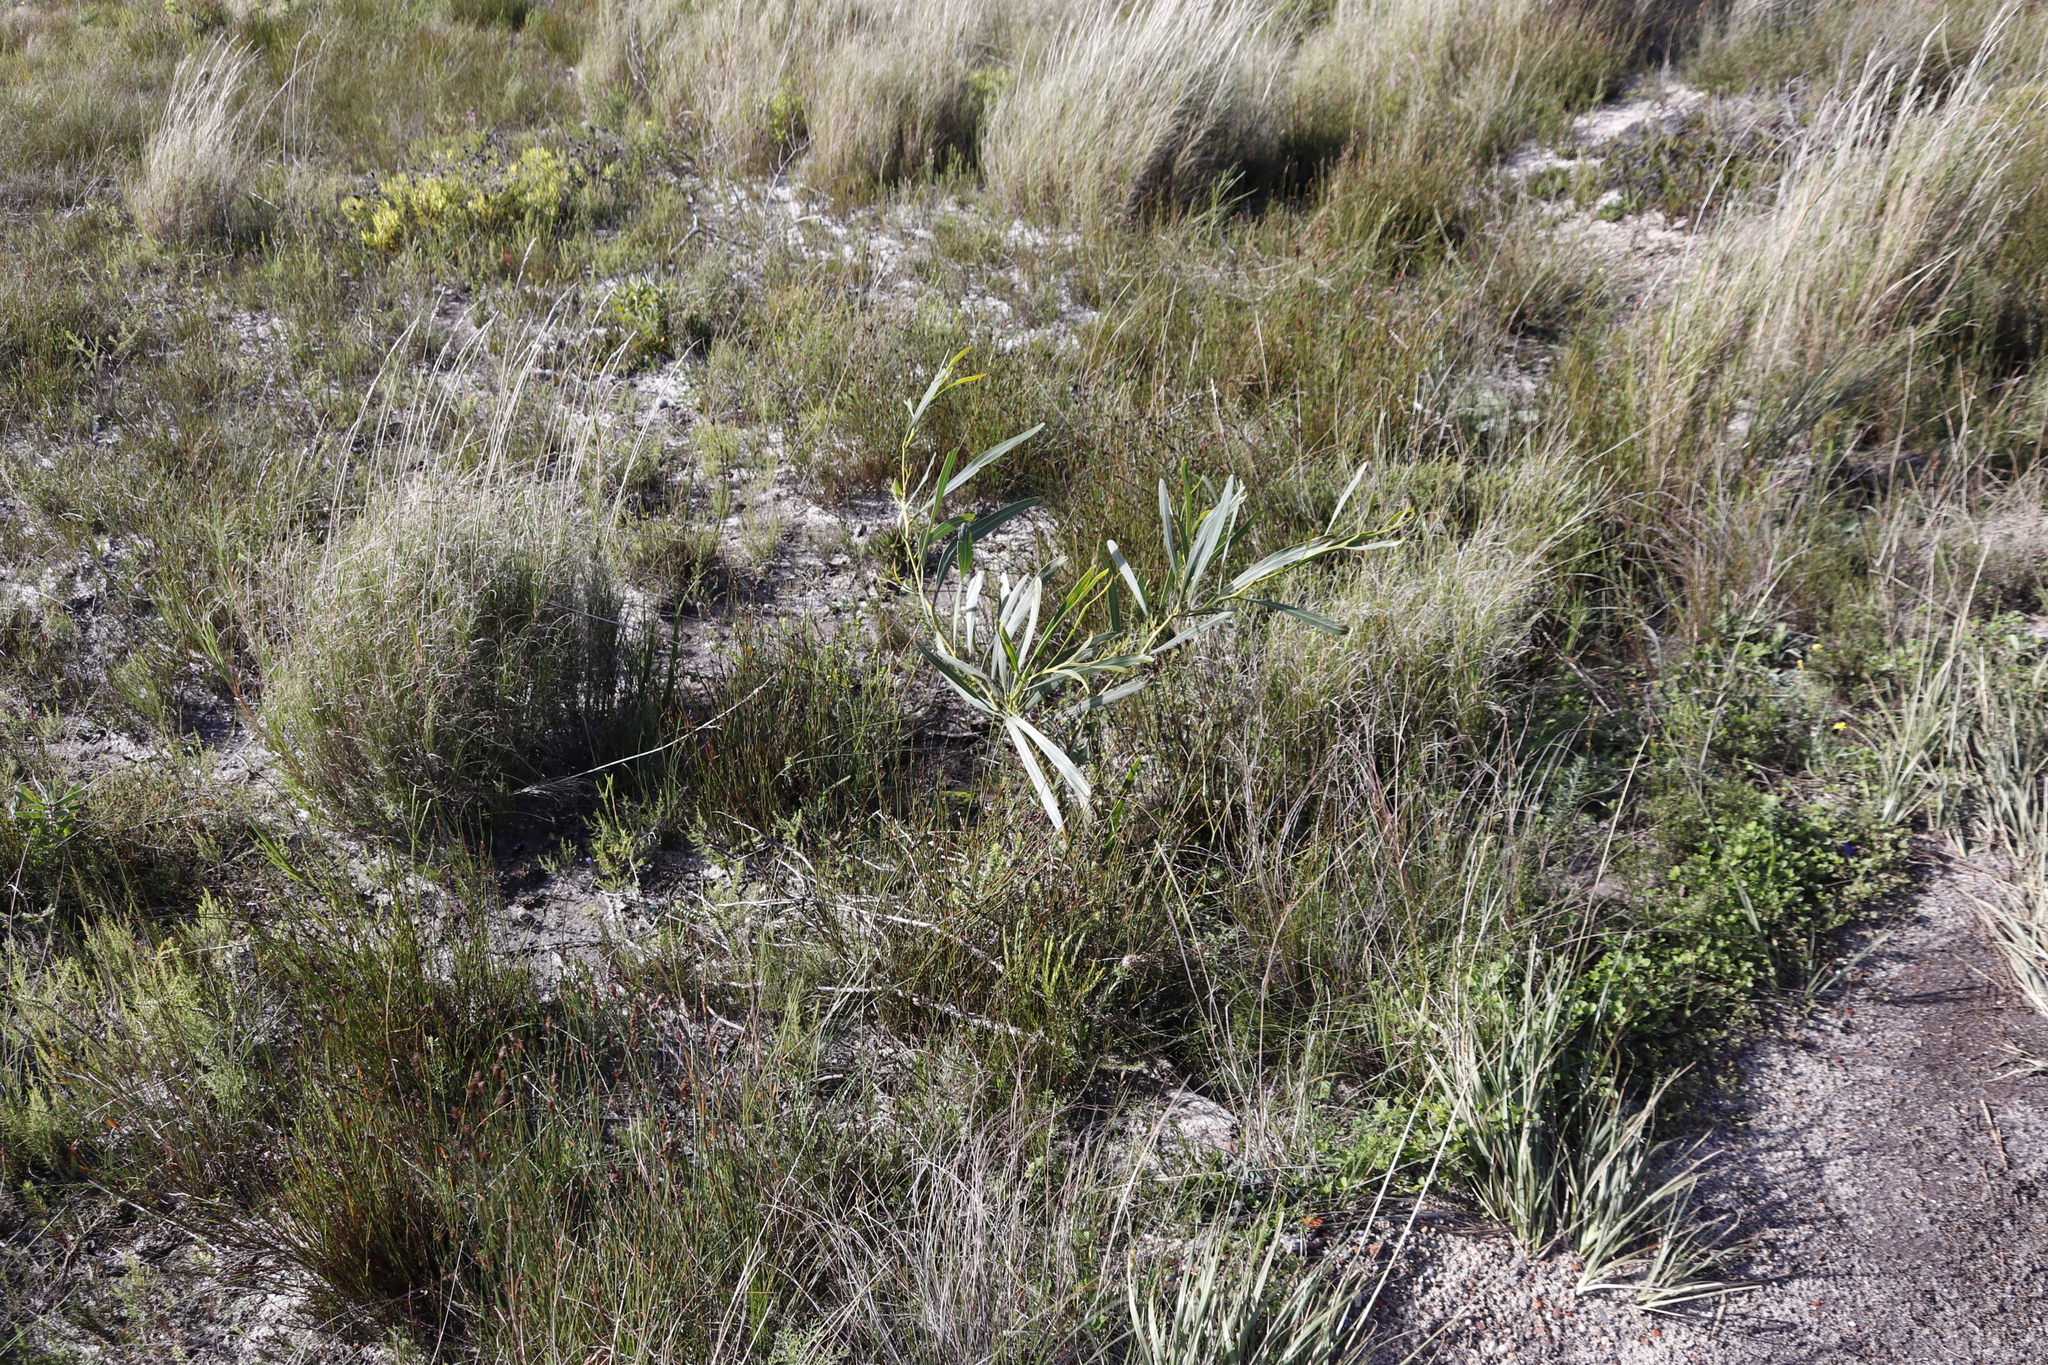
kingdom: Plantae
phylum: Tracheophyta
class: Magnoliopsida
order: Fabales
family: Fabaceae
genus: Acacia
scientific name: Acacia saligna
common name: Orange wattle
